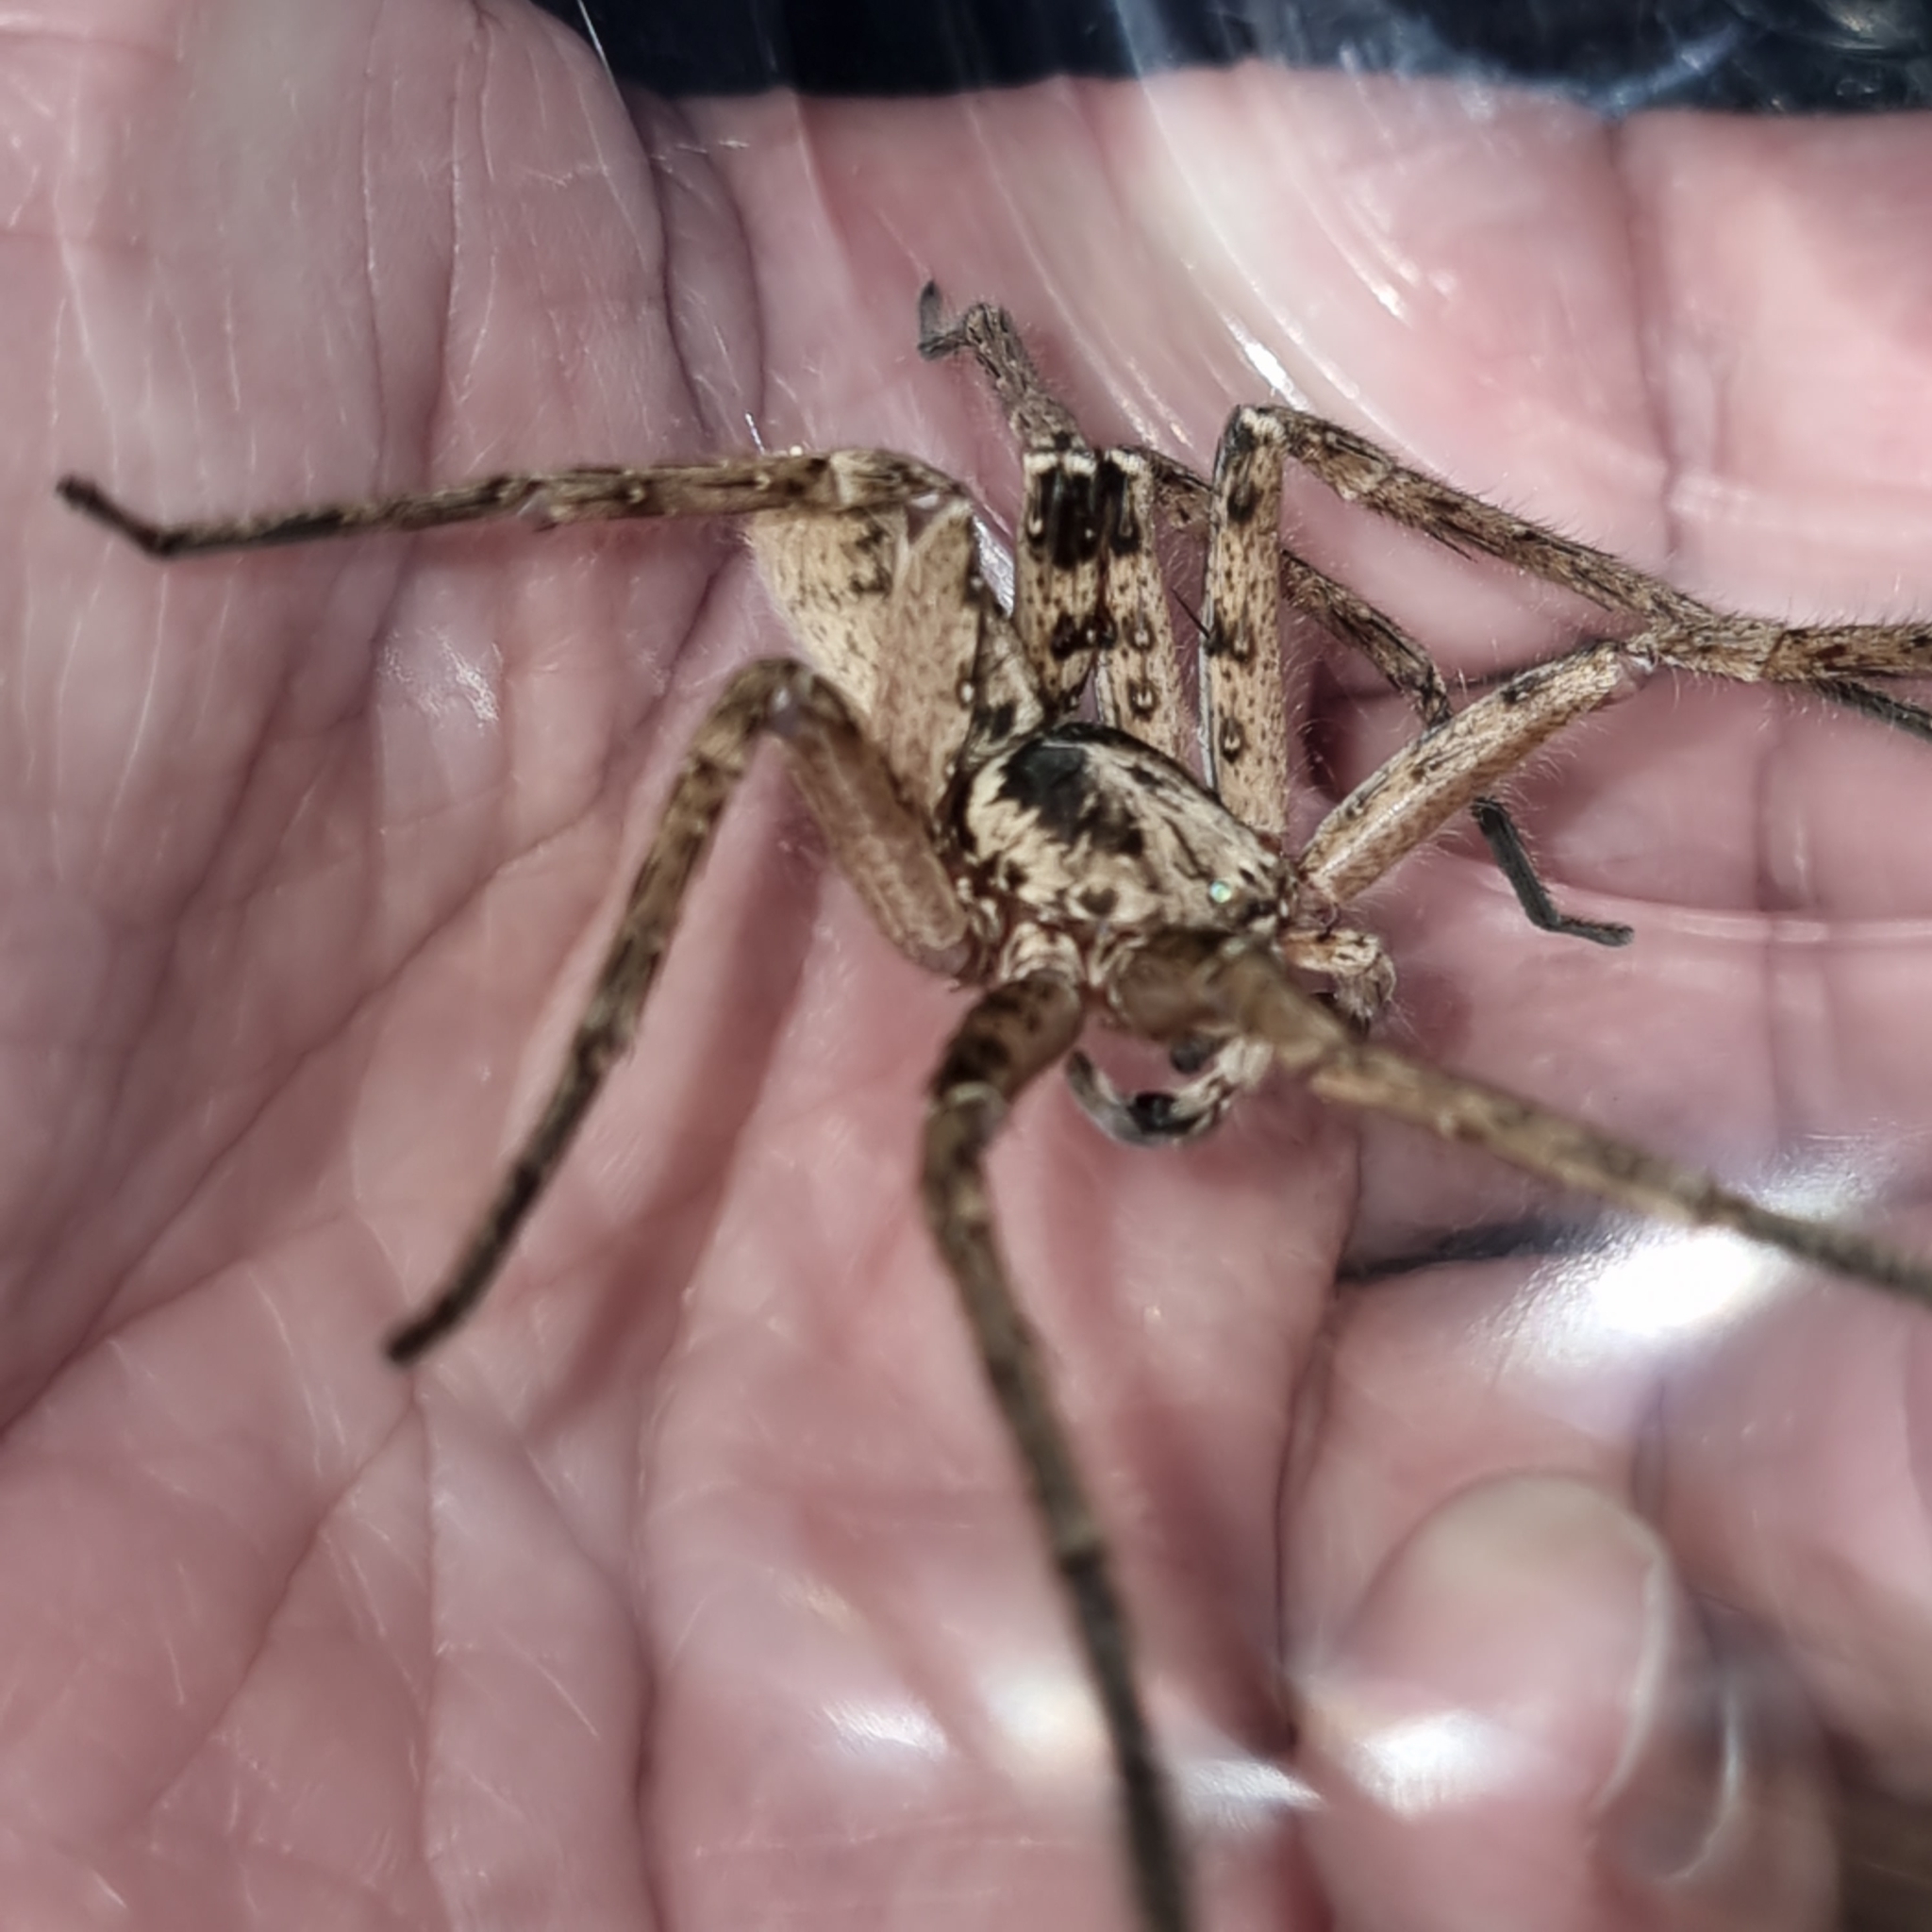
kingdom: Animalia
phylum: Arthropoda
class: Arachnida
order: Araneae
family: Sparassidae
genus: Heteropoda
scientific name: Heteropoda jugulans
